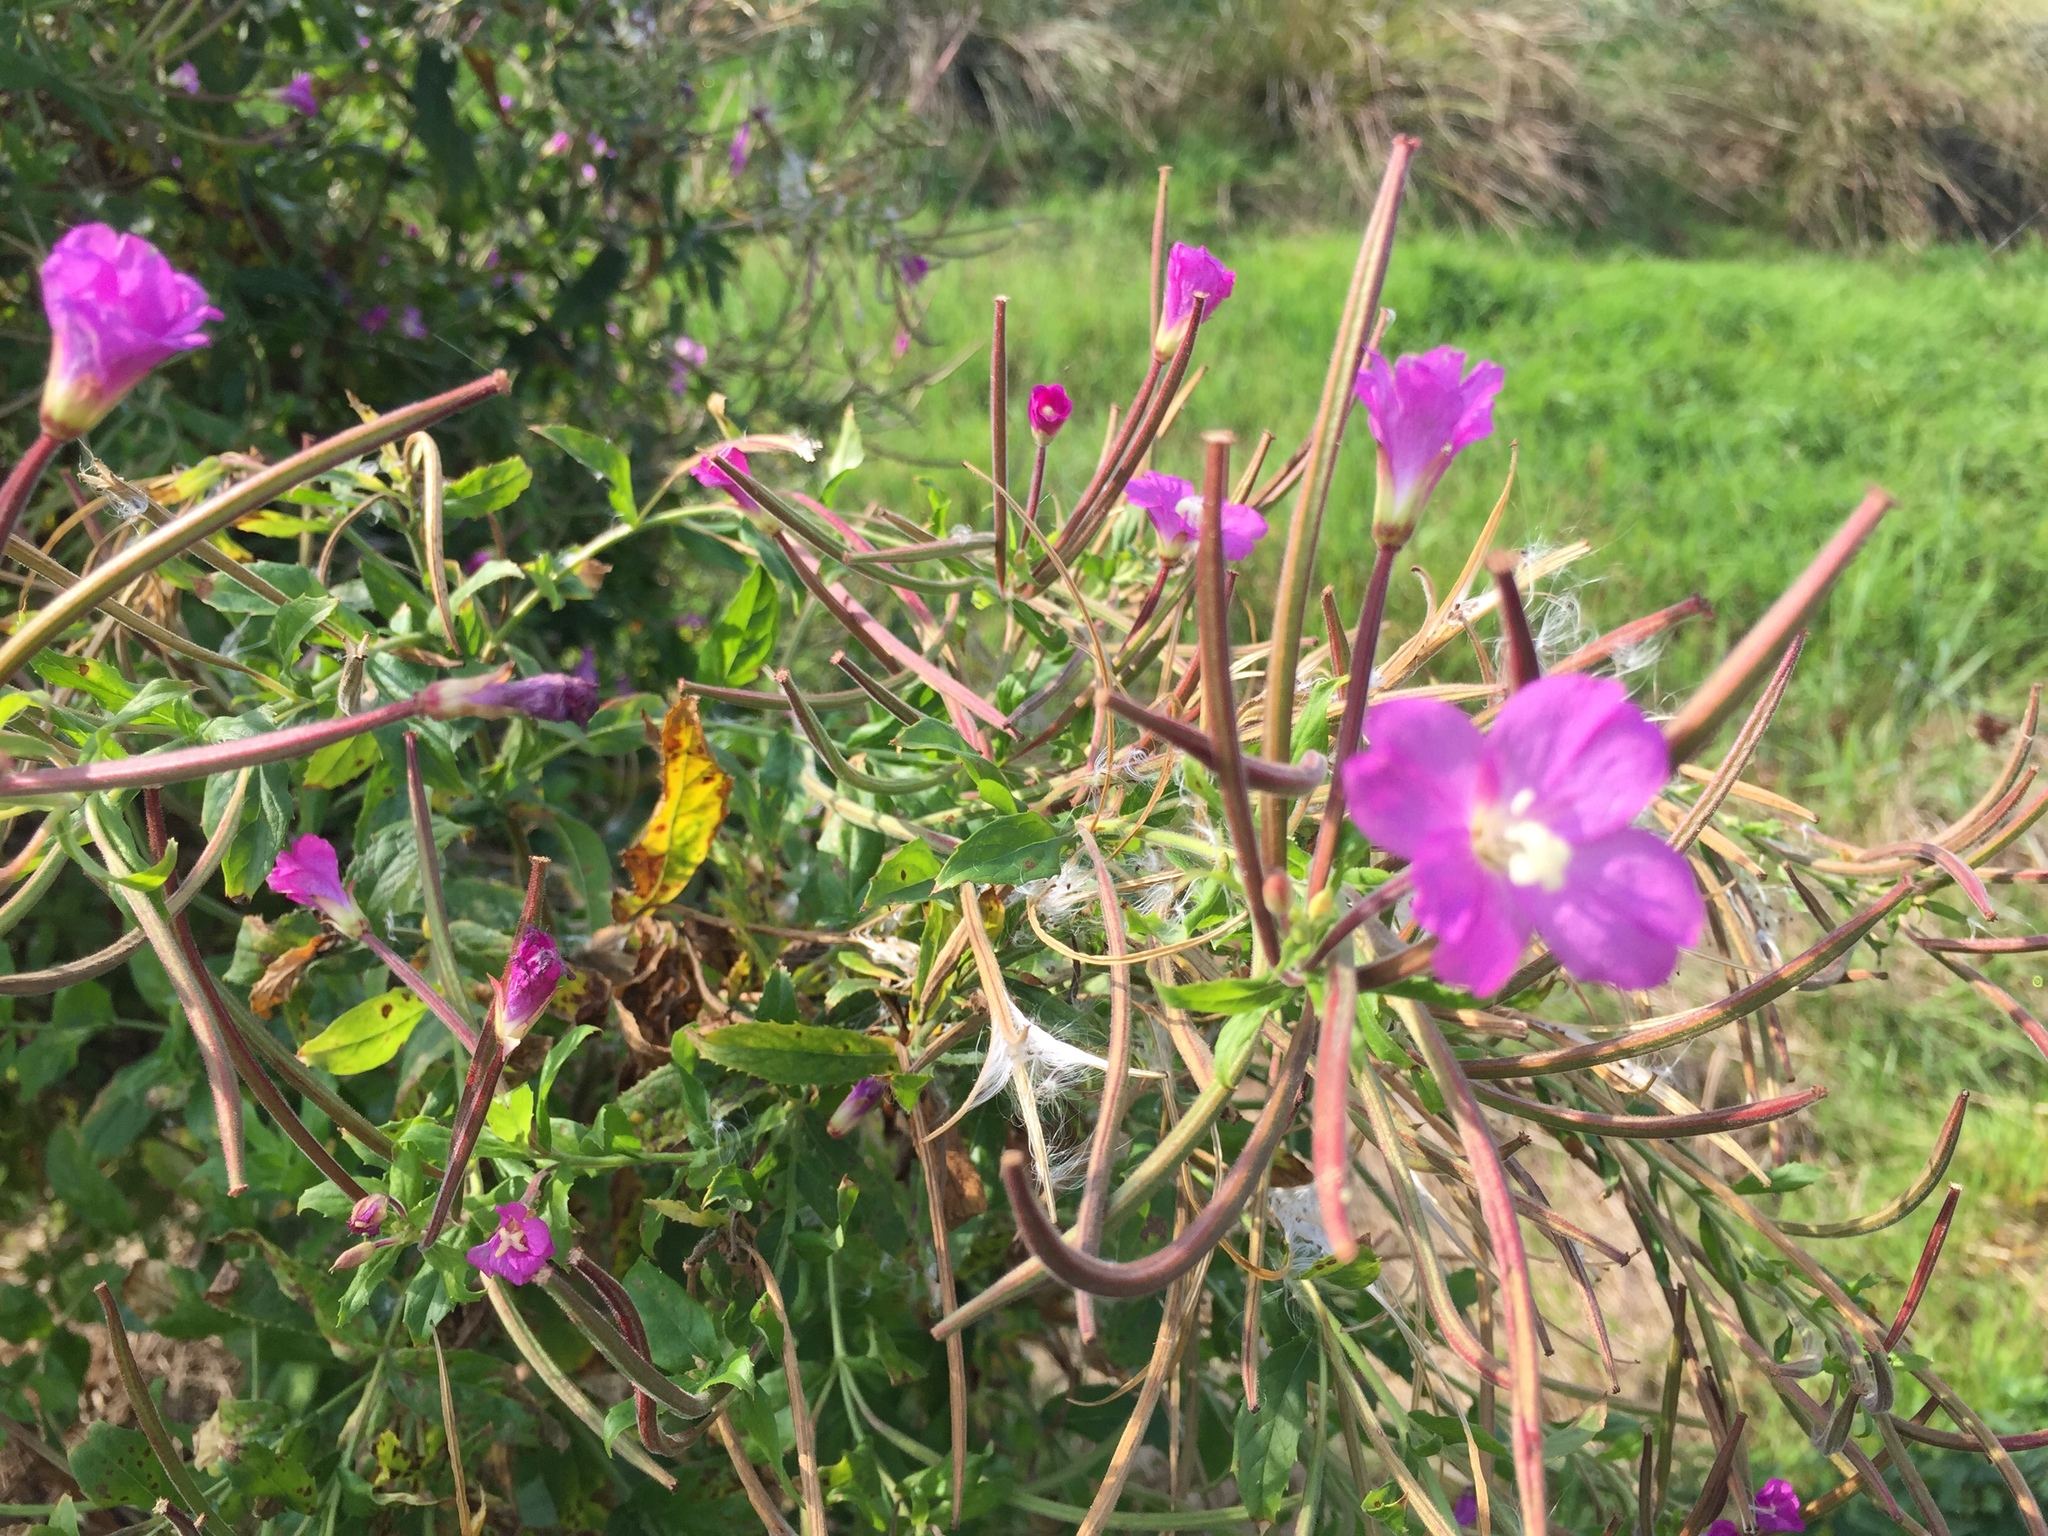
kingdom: Plantae
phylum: Tracheophyta
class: Magnoliopsida
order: Myrtales
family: Onagraceae
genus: Epilobium
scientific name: Epilobium hirsutum
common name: Great willowherb
